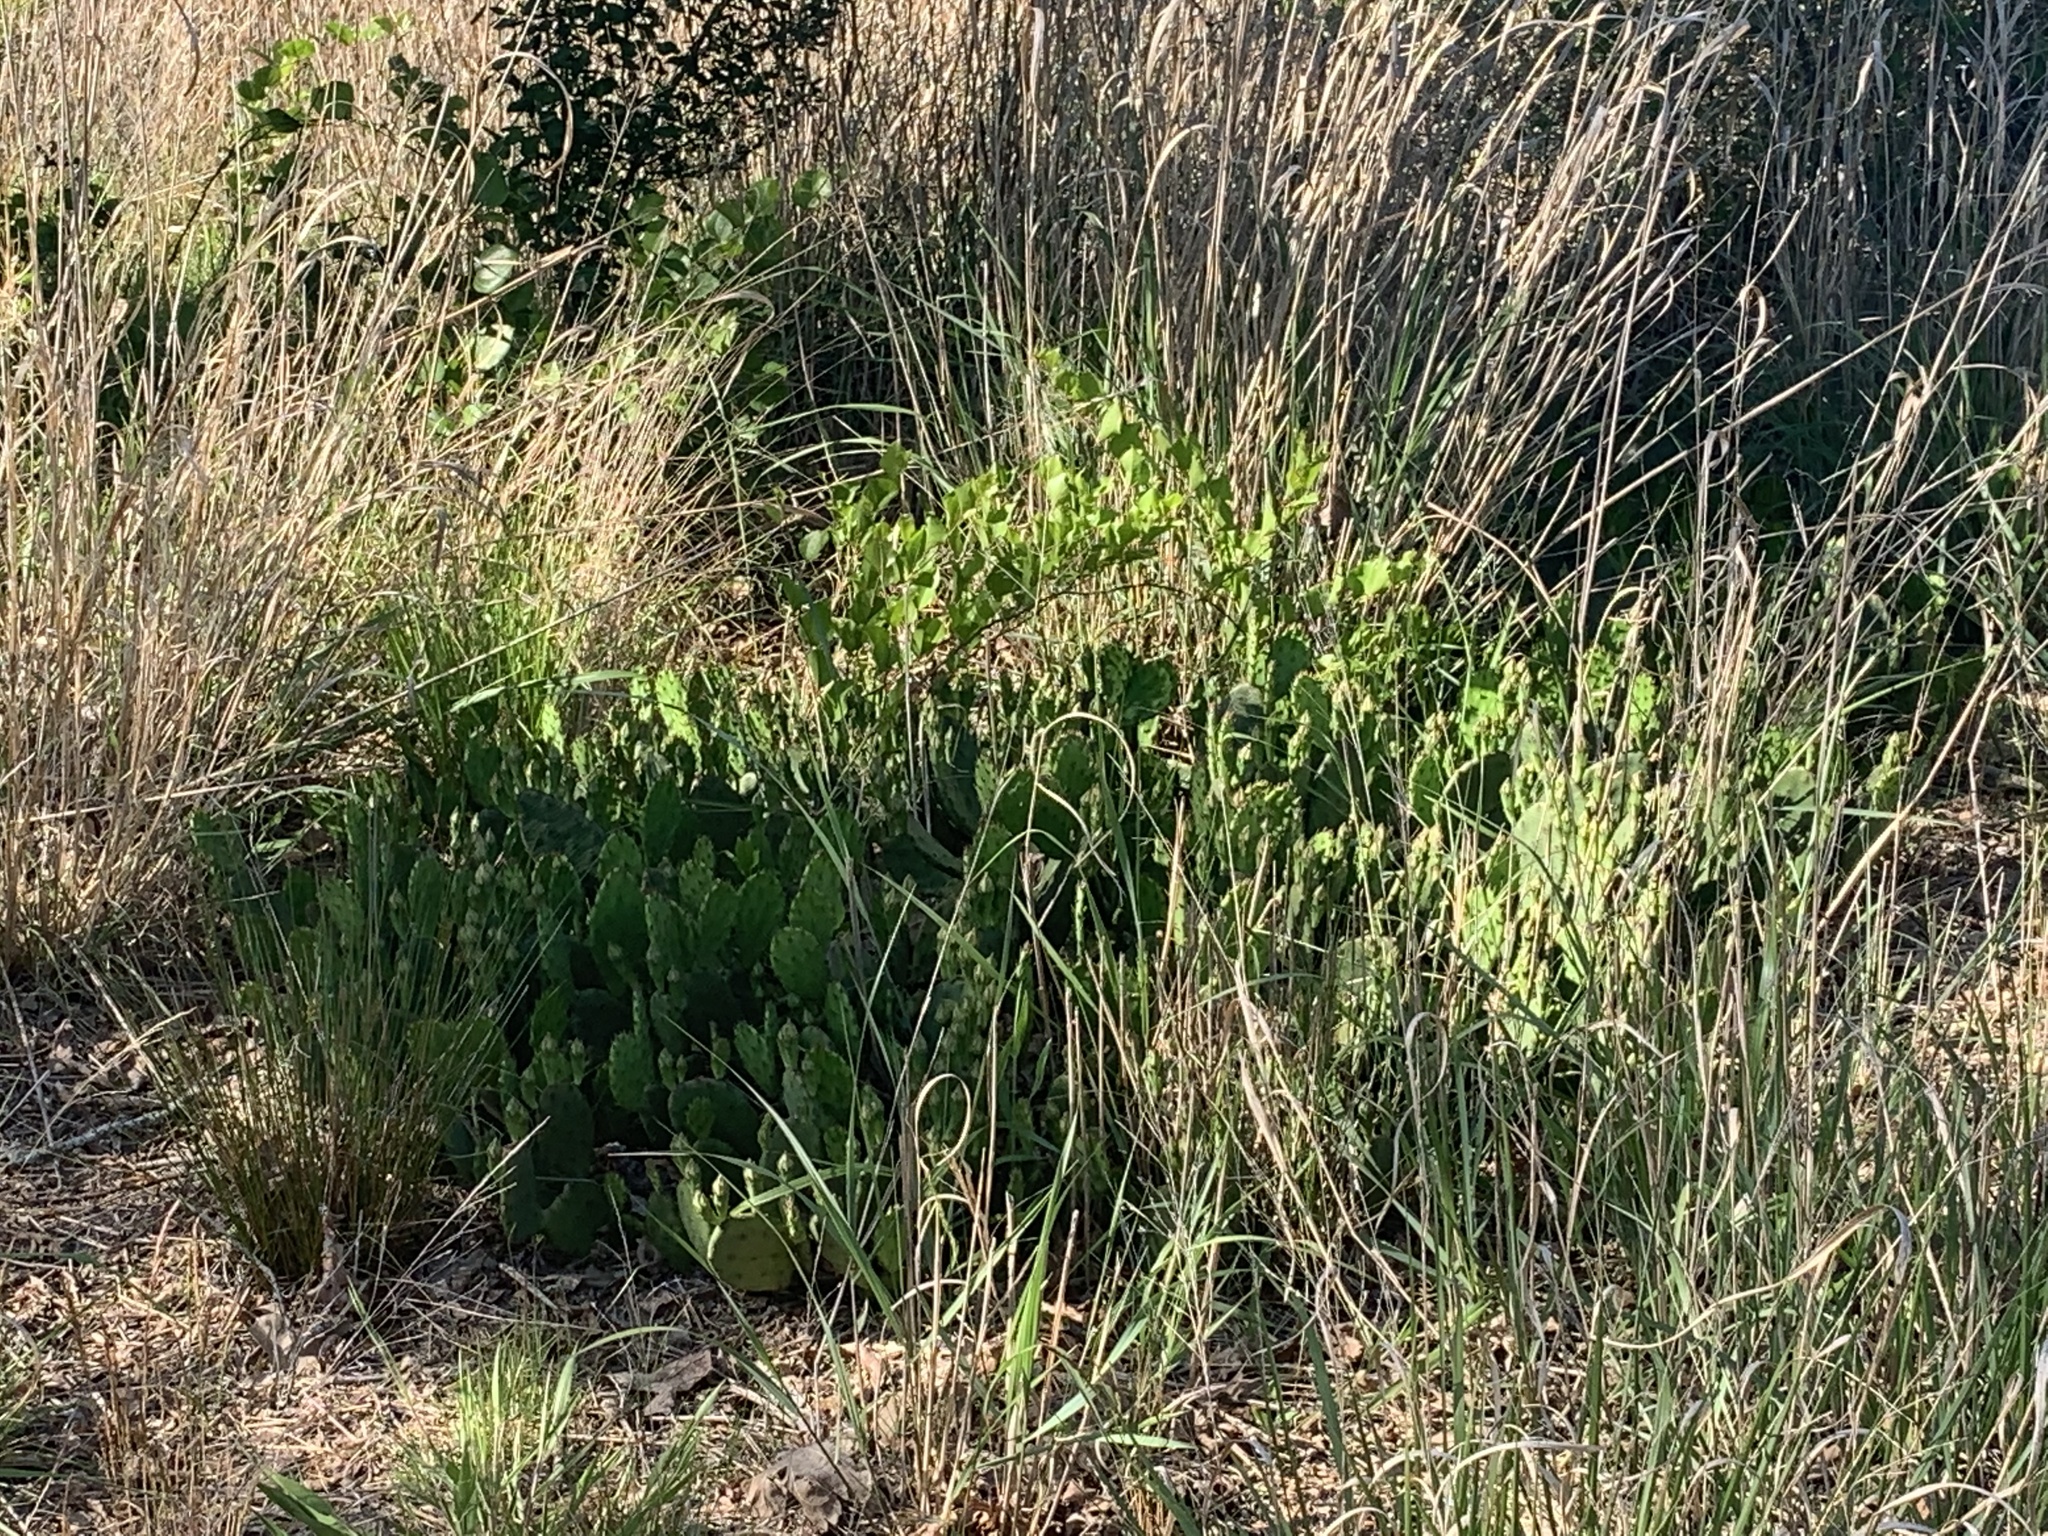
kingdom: Plantae
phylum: Tracheophyta
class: Magnoliopsida
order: Caryophyllales
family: Cactaceae
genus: Opuntia
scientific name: Opuntia humifusa
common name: Eastern prickly-pear
